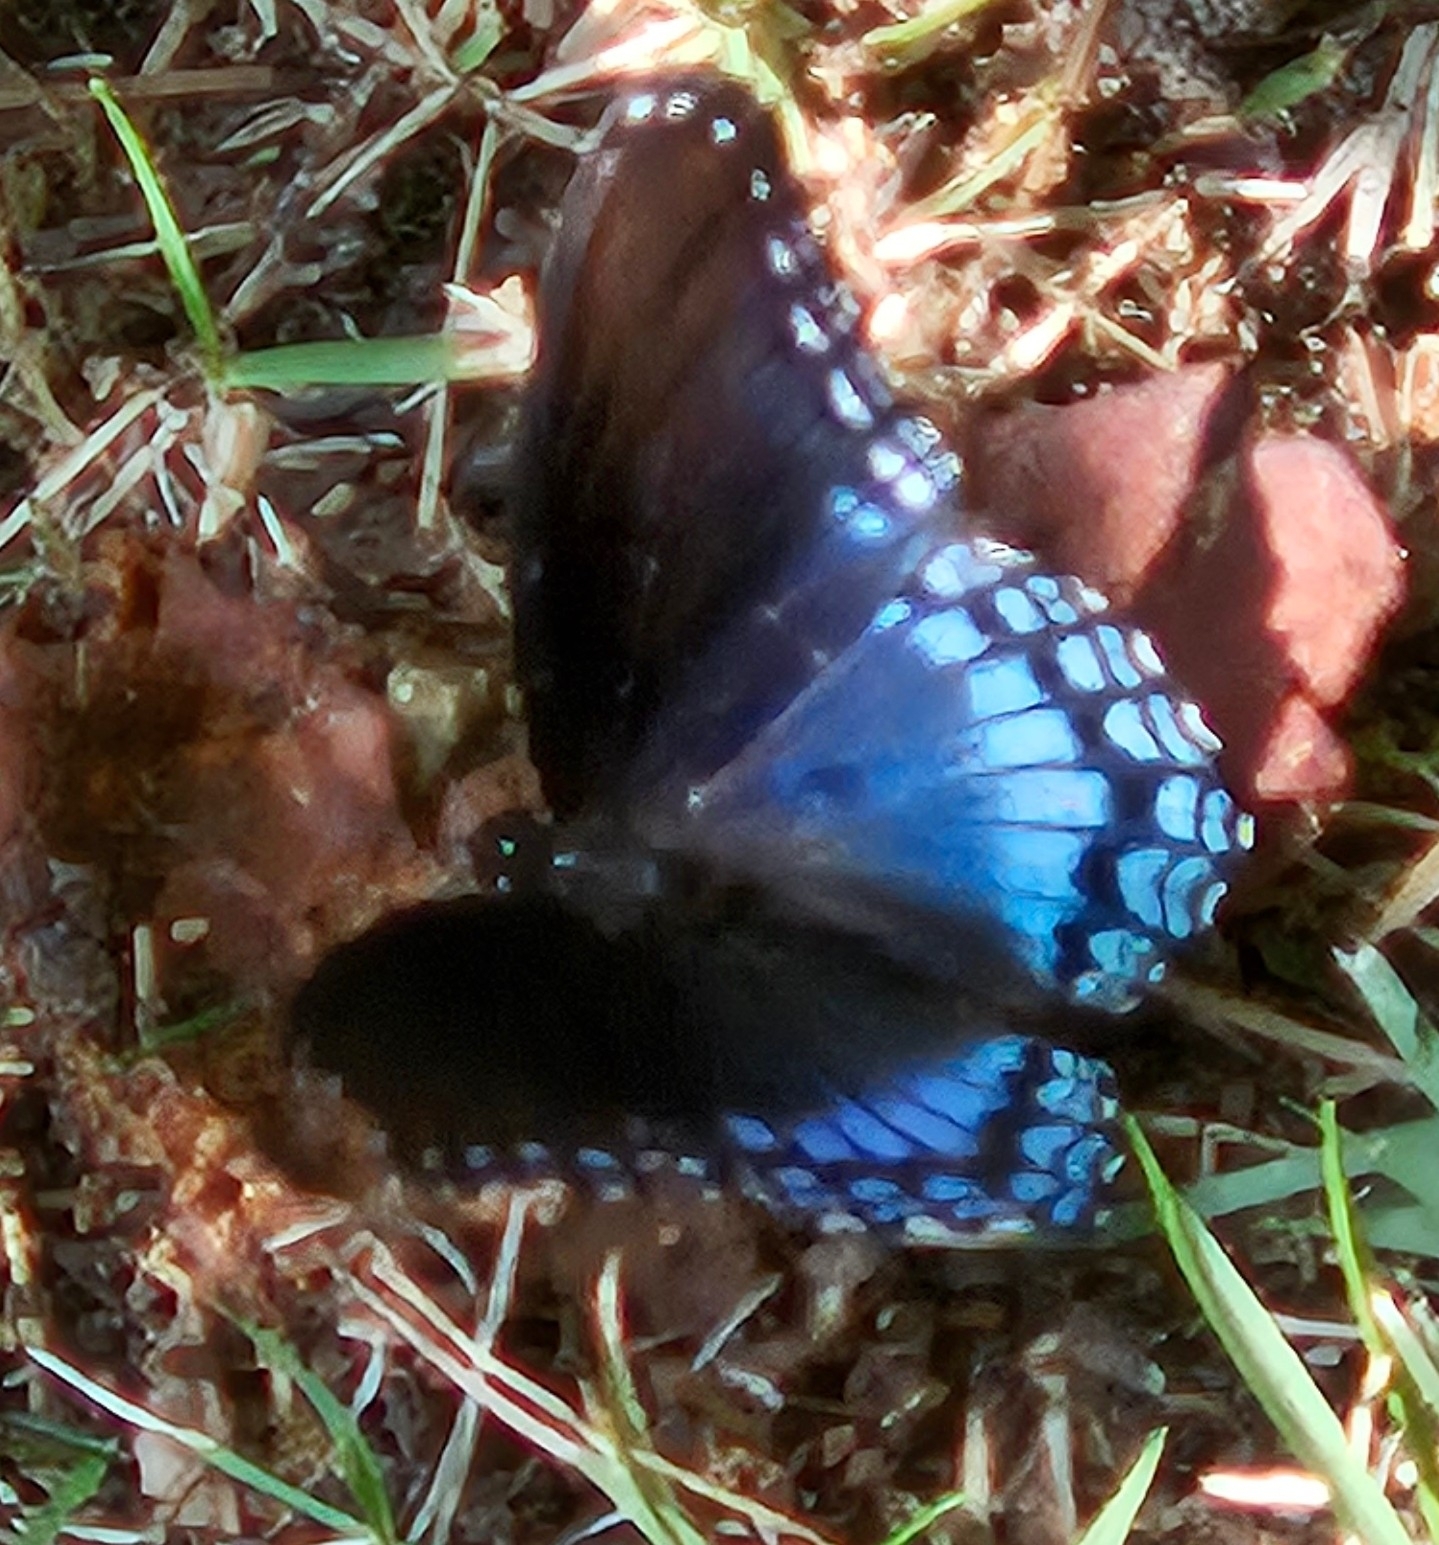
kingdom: Animalia
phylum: Arthropoda
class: Insecta
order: Lepidoptera
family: Nymphalidae
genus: Limenitis
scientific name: Limenitis astyanax
